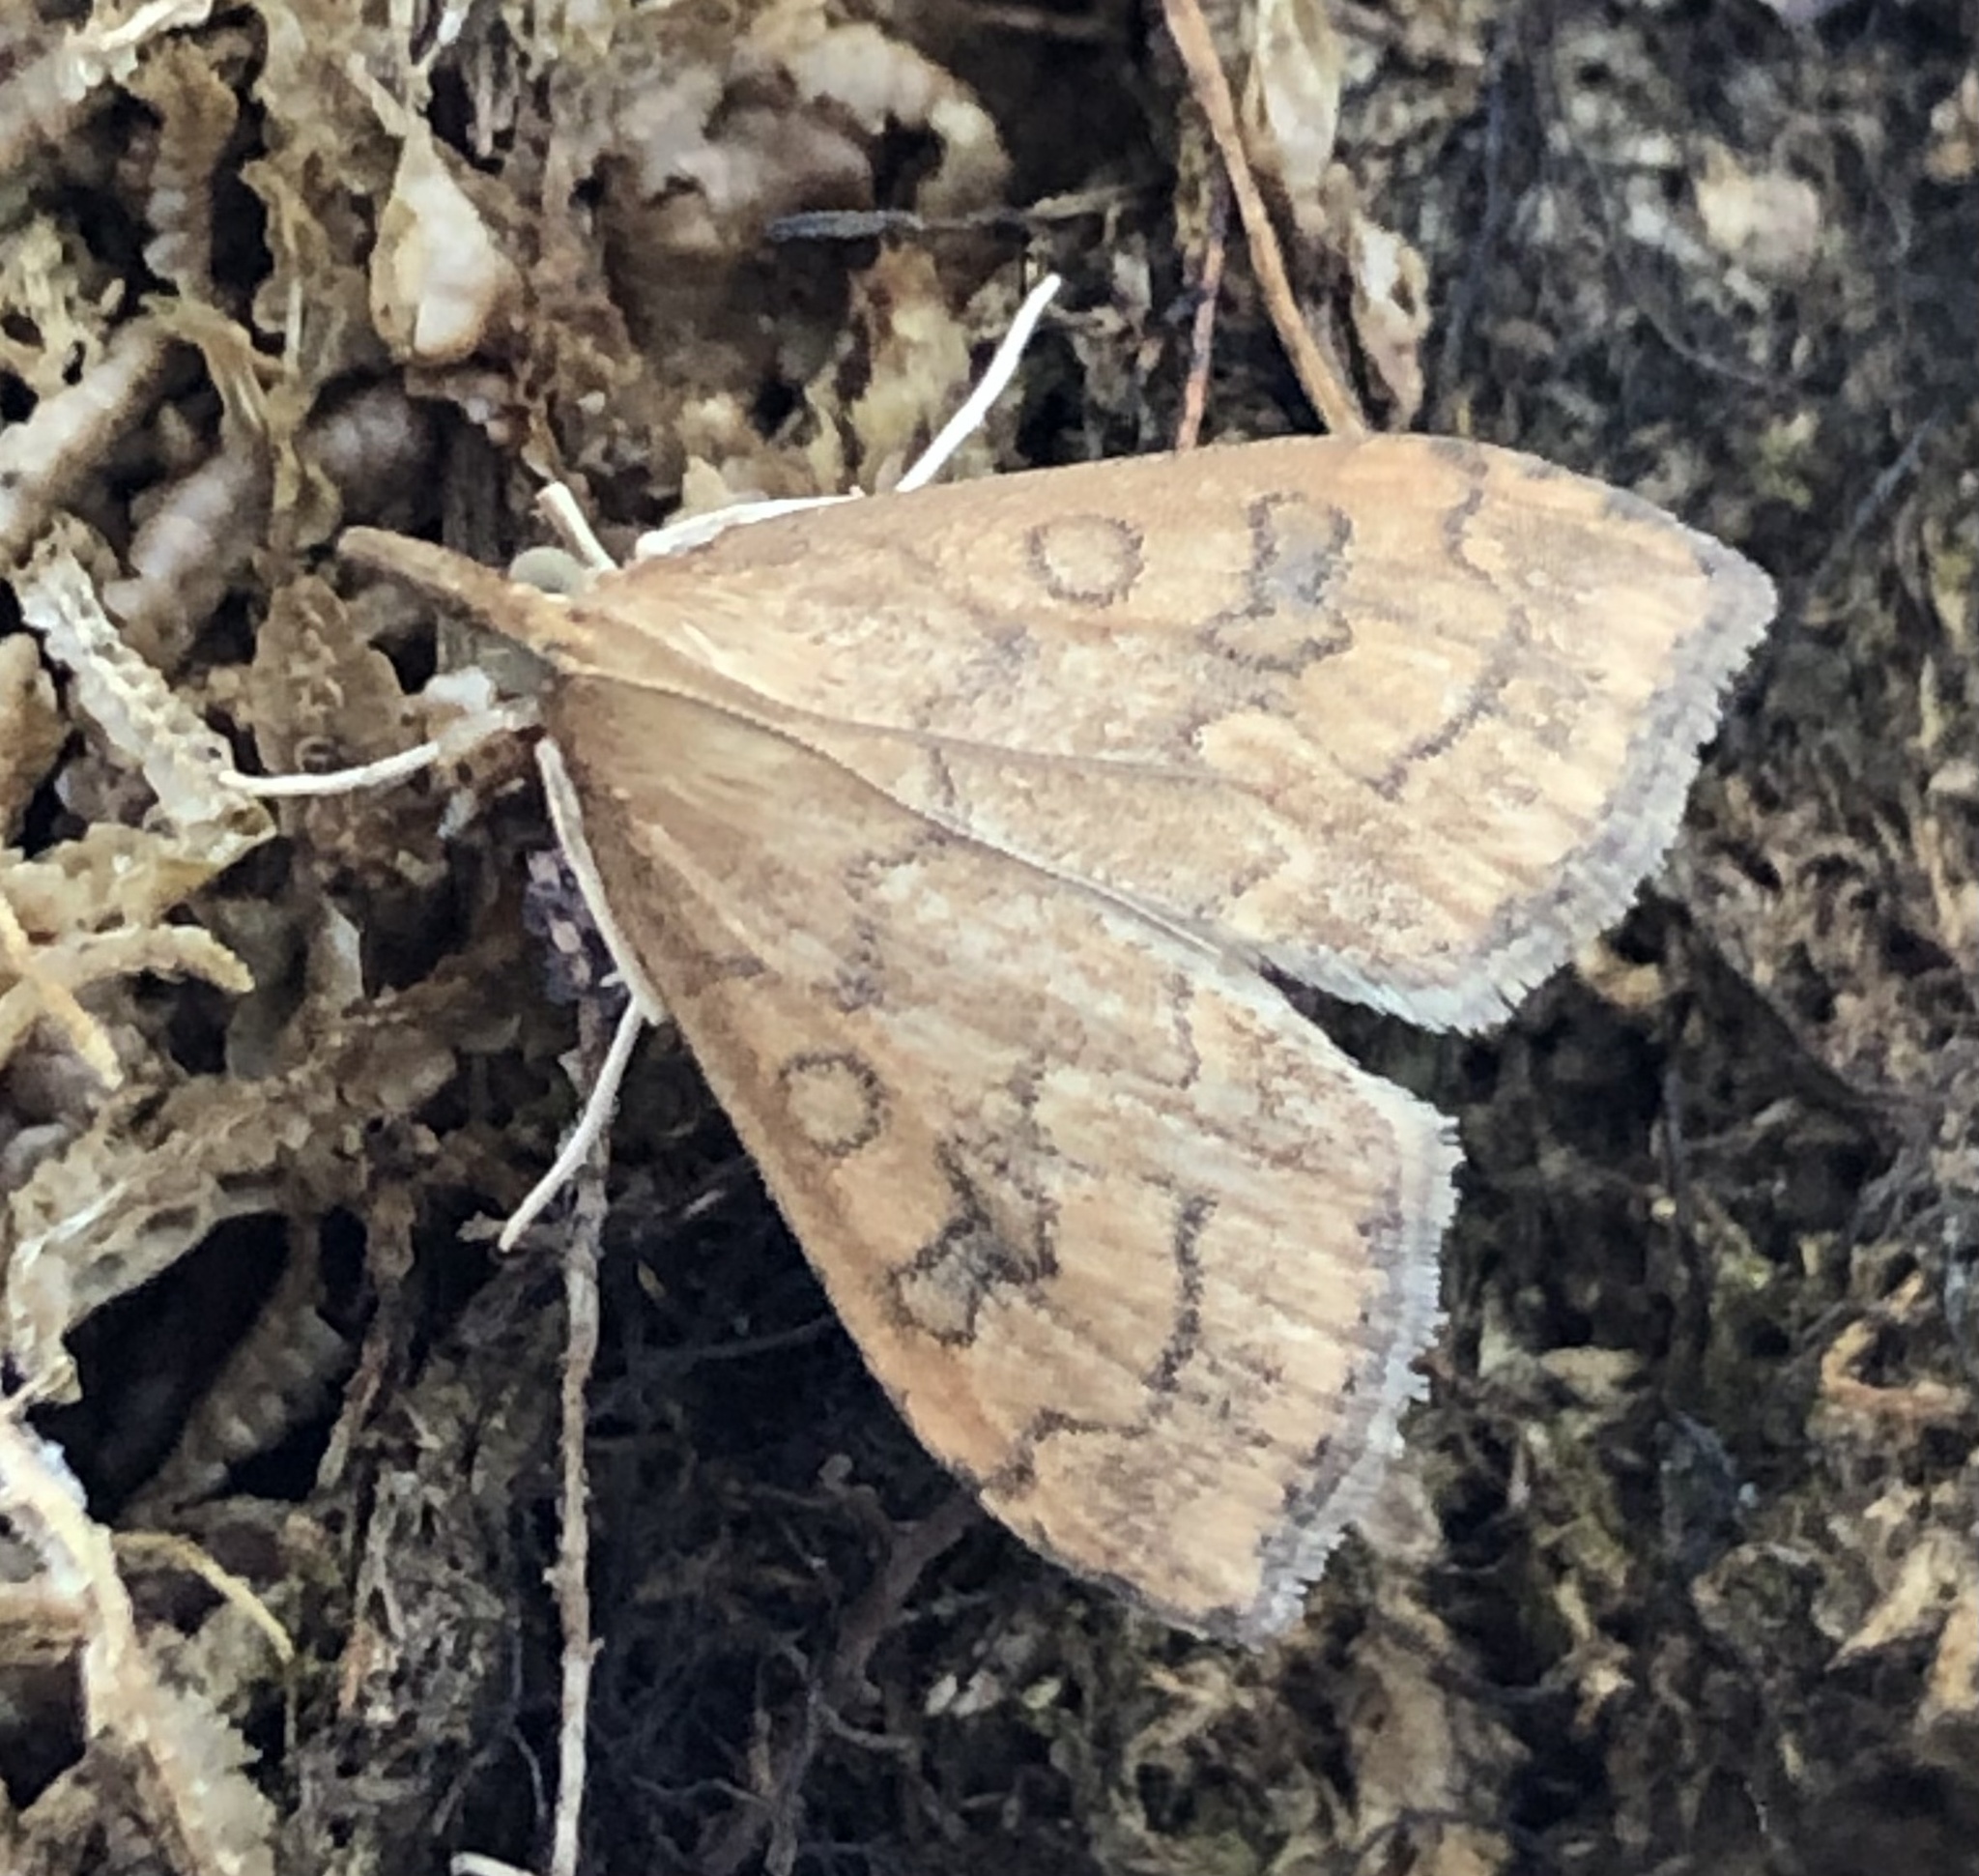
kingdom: Animalia
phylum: Arthropoda
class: Insecta
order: Lepidoptera
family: Crambidae
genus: Udea
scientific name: Udea profundalis
